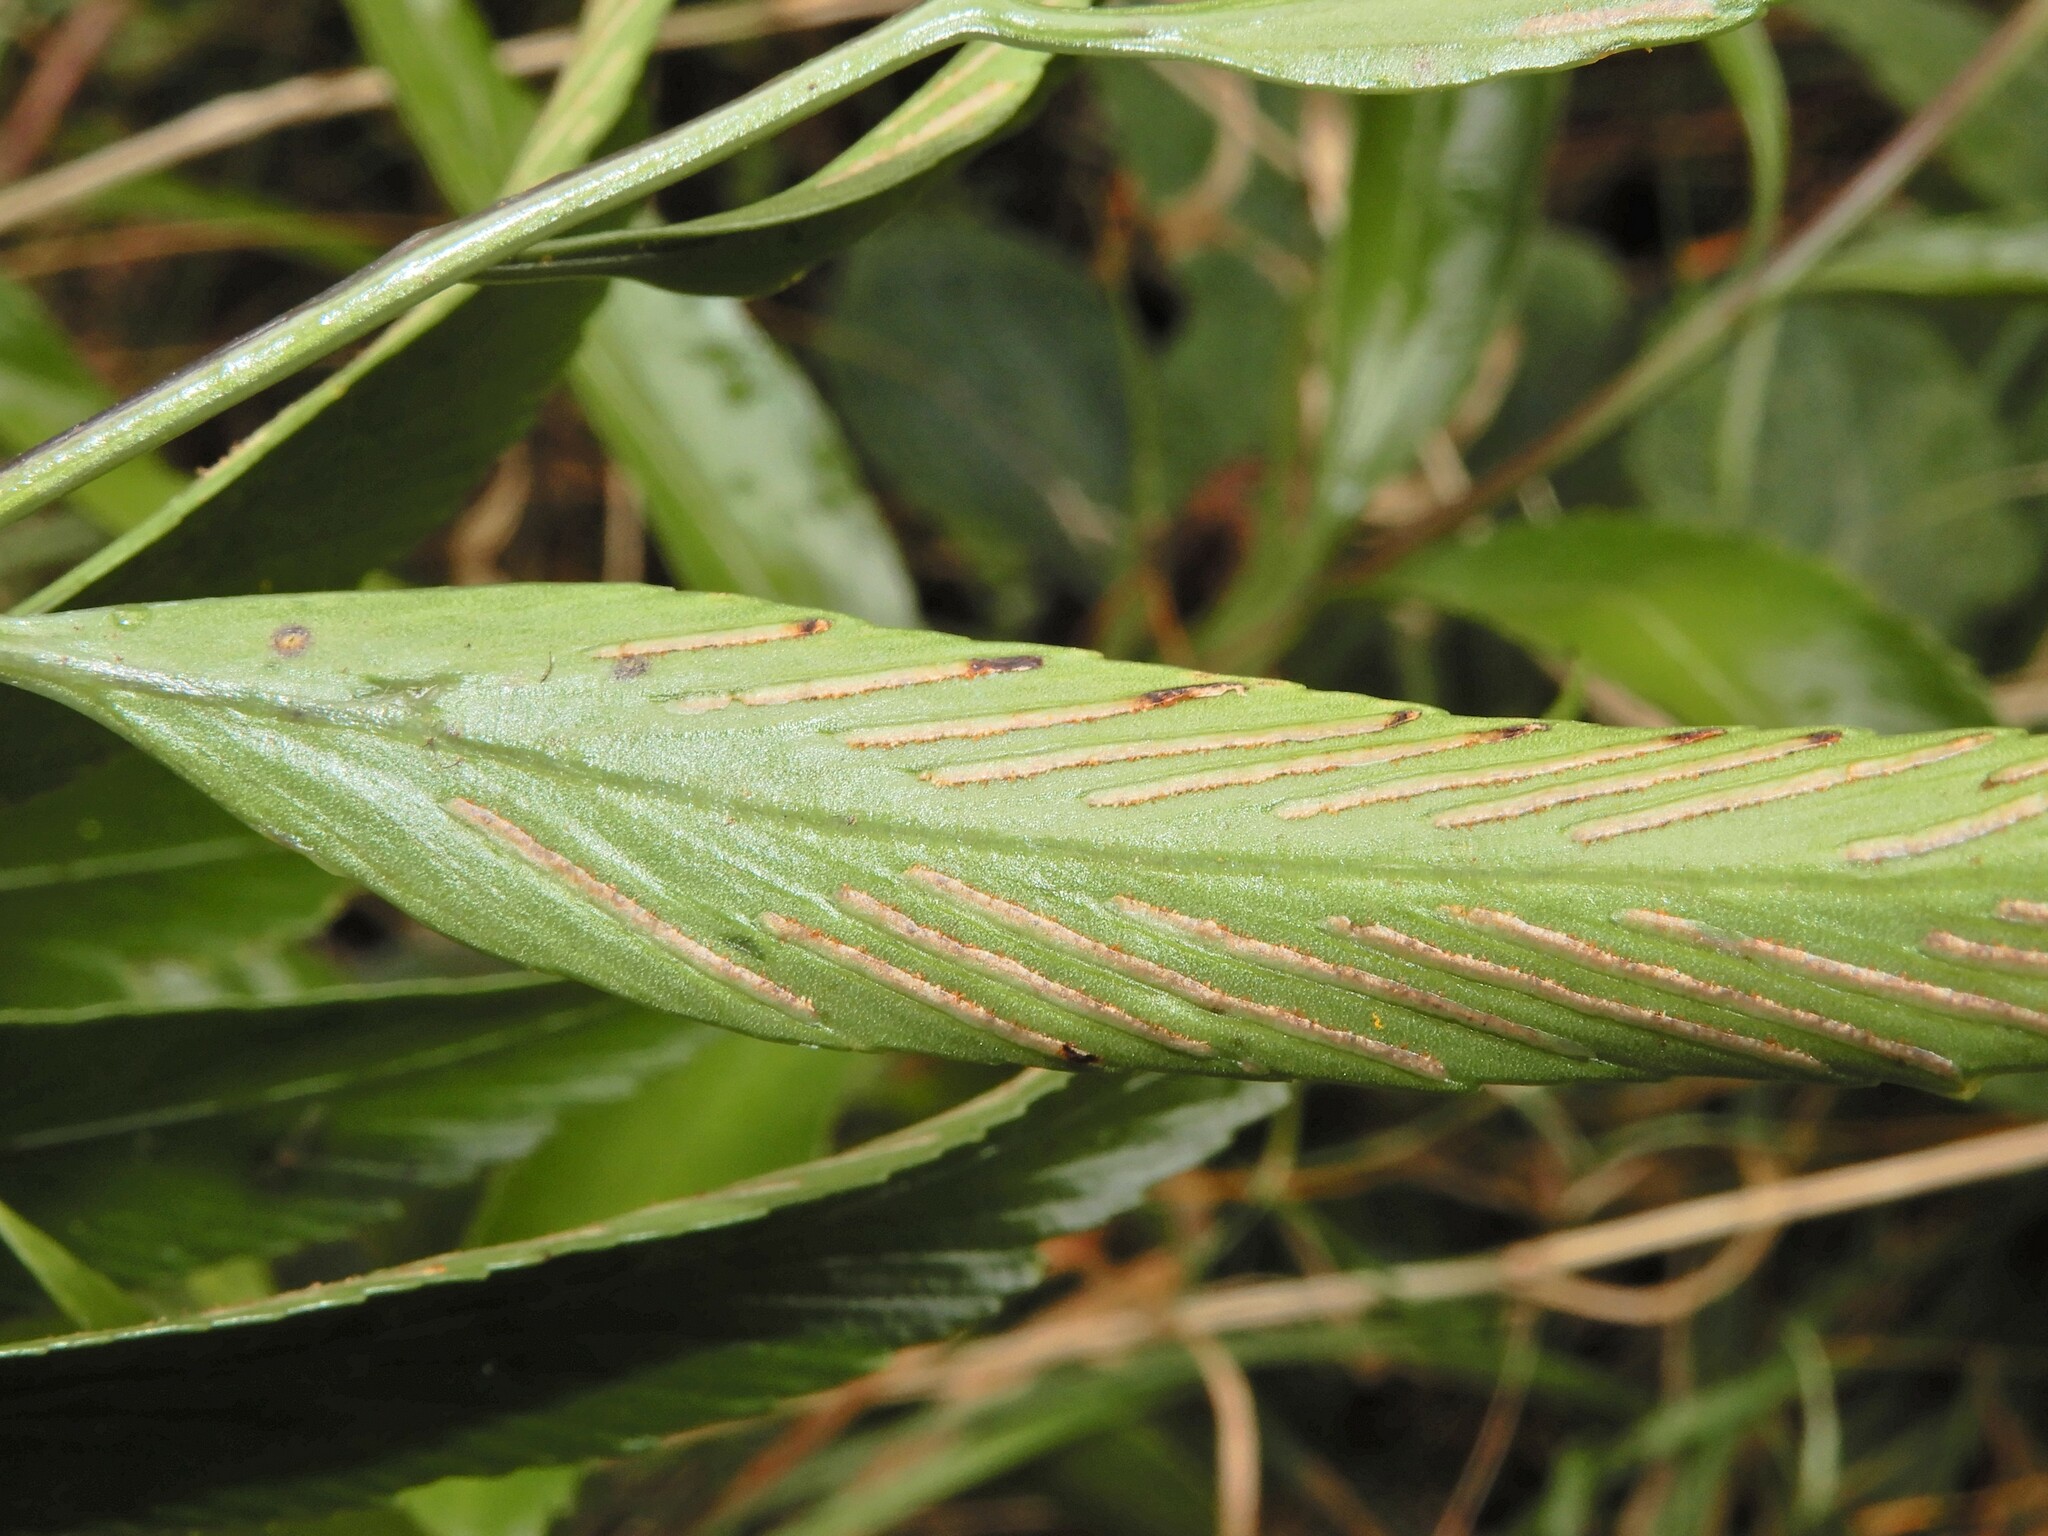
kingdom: Plantae
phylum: Tracheophyta
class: Polypodiopsida
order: Polypodiales
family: Aspleniaceae
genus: Asplenium
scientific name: Asplenium oblongifolium
